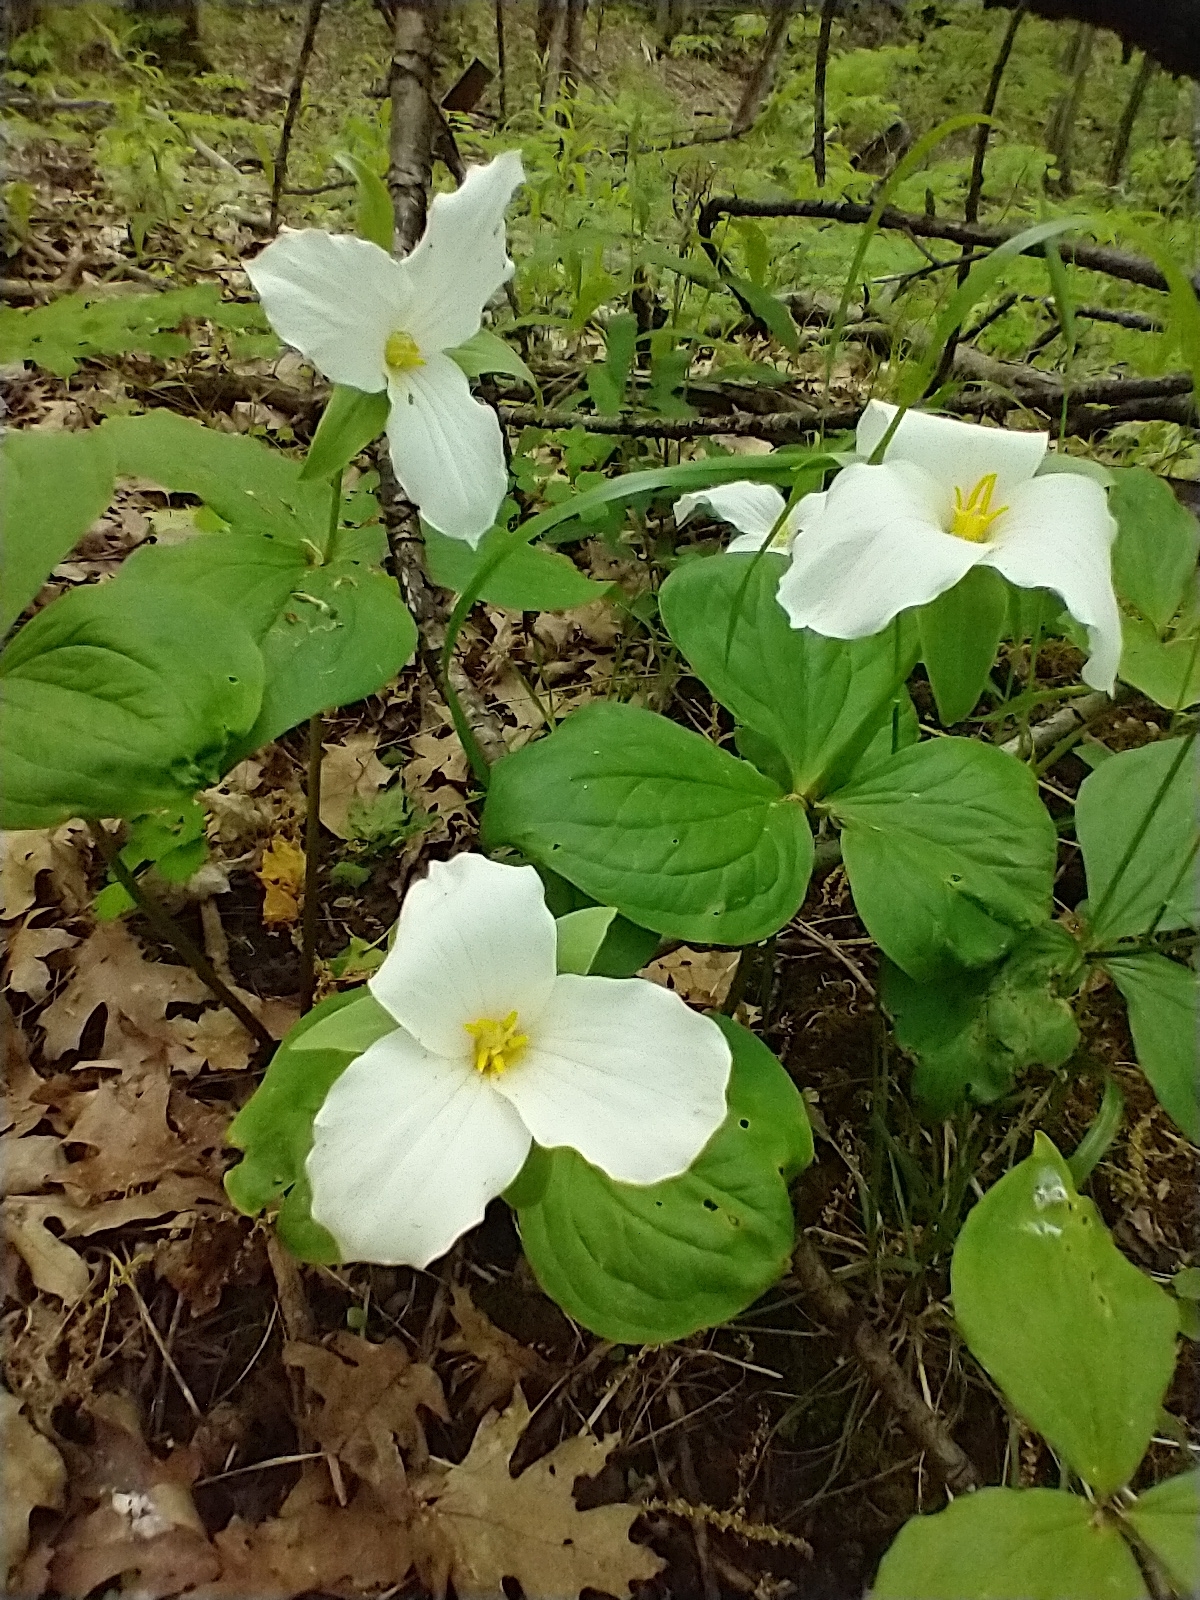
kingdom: Plantae
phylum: Tracheophyta
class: Liliopsida
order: Liliales
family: Melanthiaceae
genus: Trillium
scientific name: Trillium grandiflorum
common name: Great white trillium
